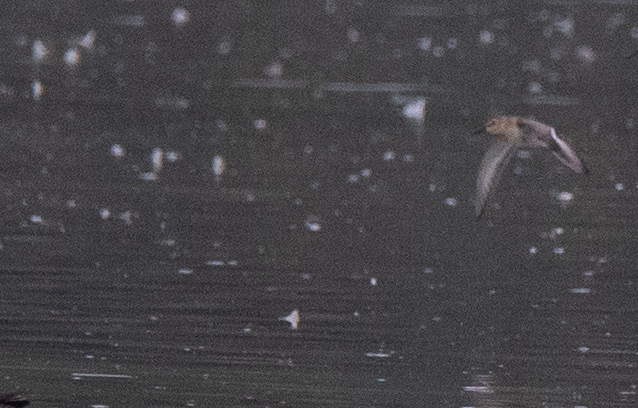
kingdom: Animalia
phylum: Chordata
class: Aves
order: Charadriiformes
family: Scolopacidae
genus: Calidris
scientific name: Calidris alpina
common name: Dunlin
